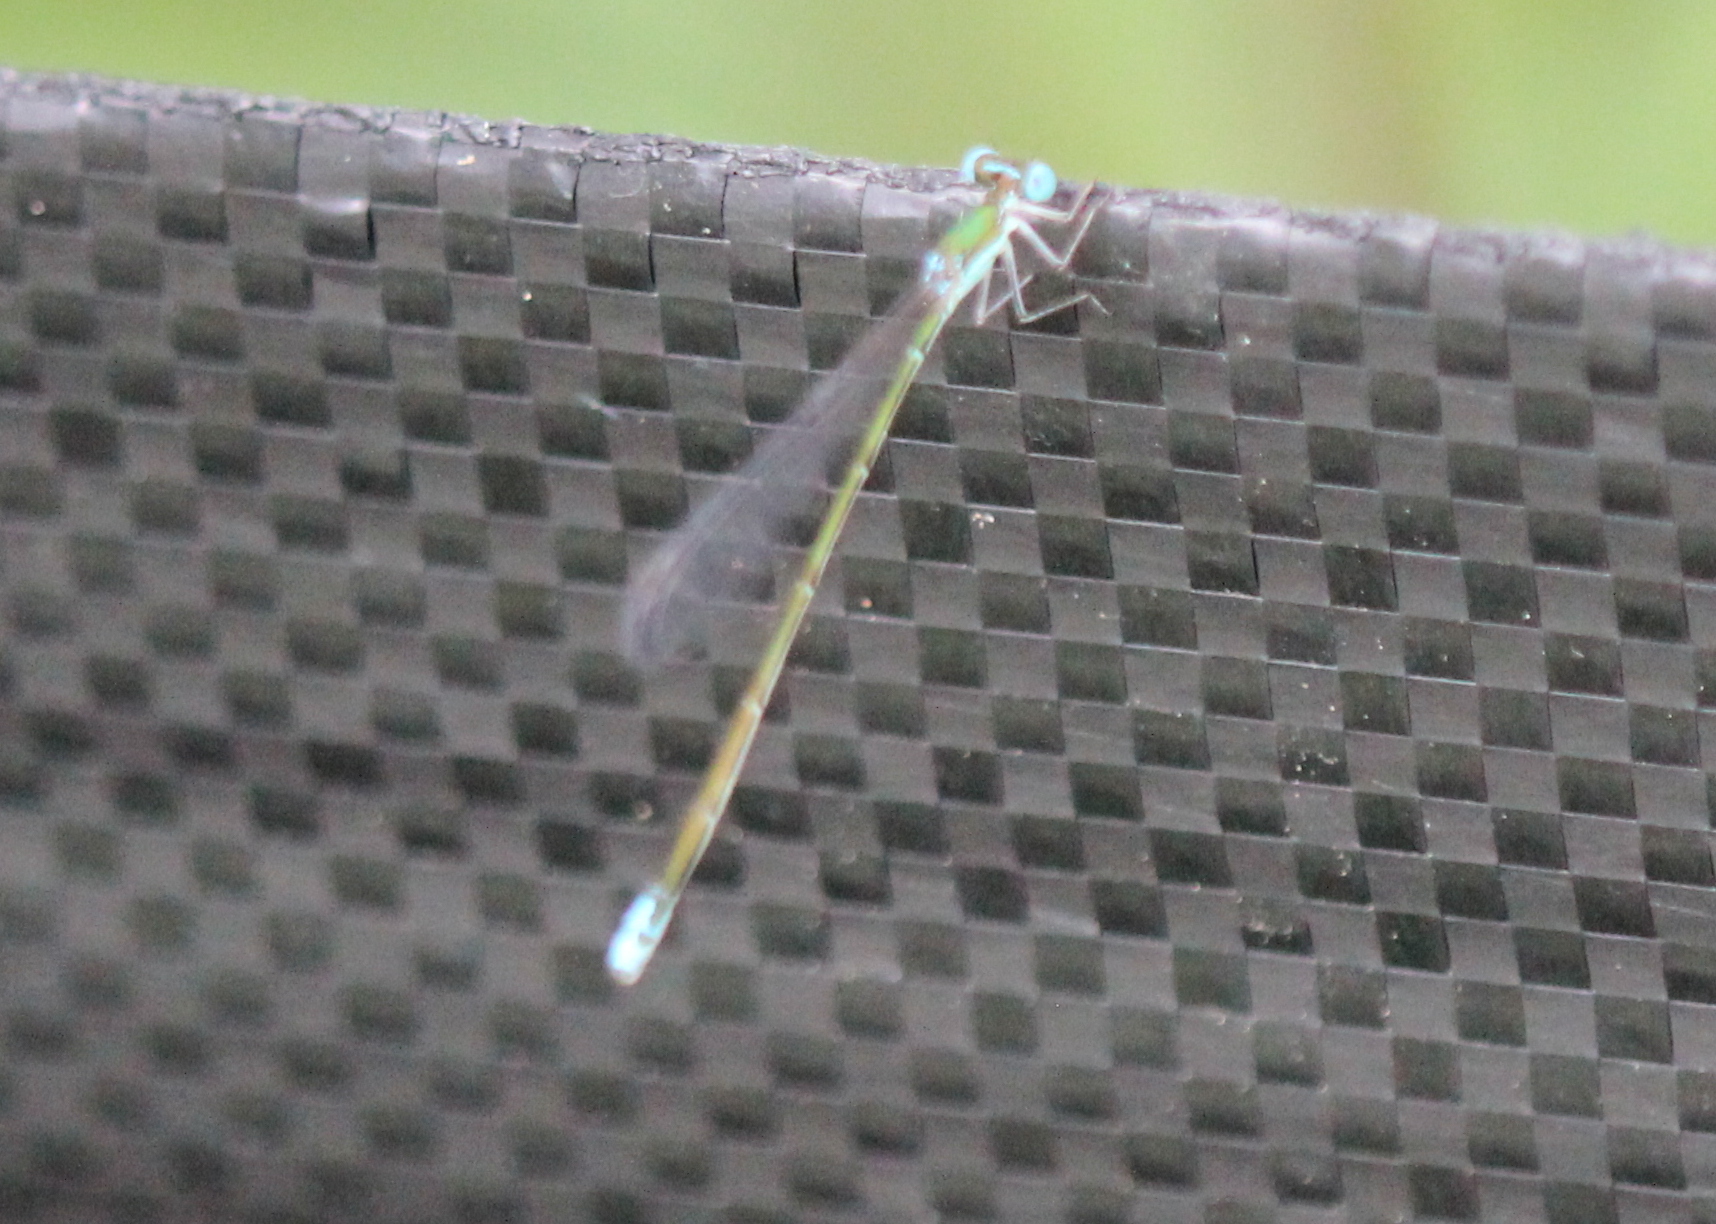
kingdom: Animalia
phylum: Arthropoda
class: Insecta
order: Odonata
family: Coenagrionidae
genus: Nehalennia
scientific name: Nehalennia gracilis
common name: Sphagnum sprite
